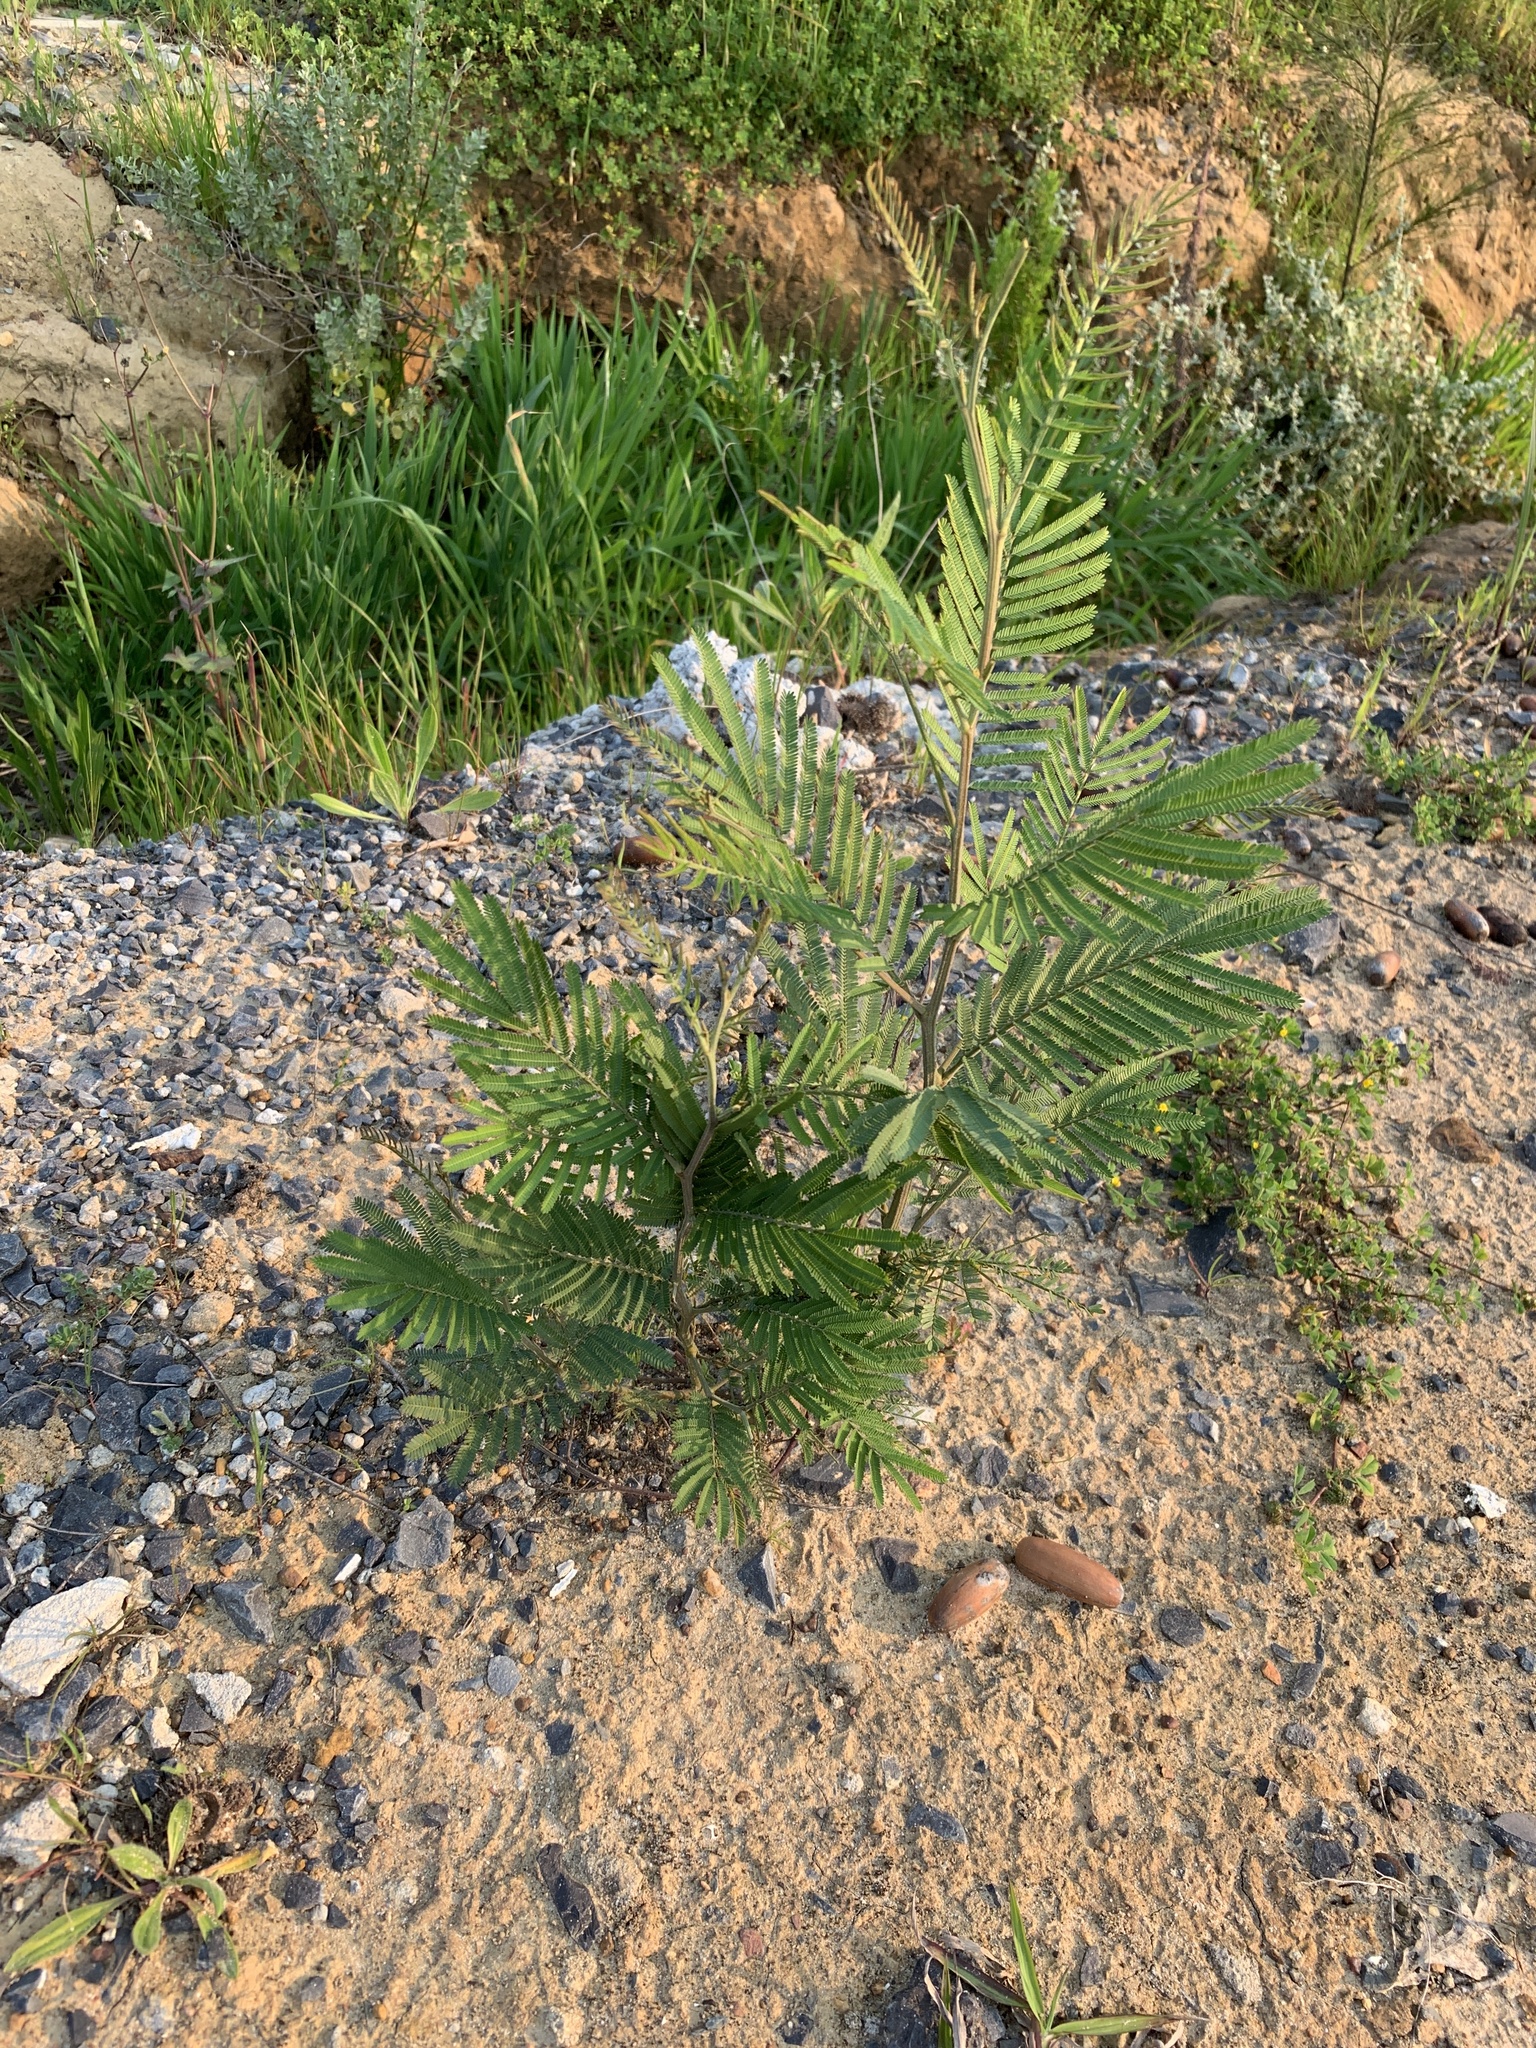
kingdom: Plantae
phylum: Tracheophyta
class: Magnoliopsida
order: Fabales
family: Fabaceae
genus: Acacia
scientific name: Acacia mearnsii
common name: Black wattle
